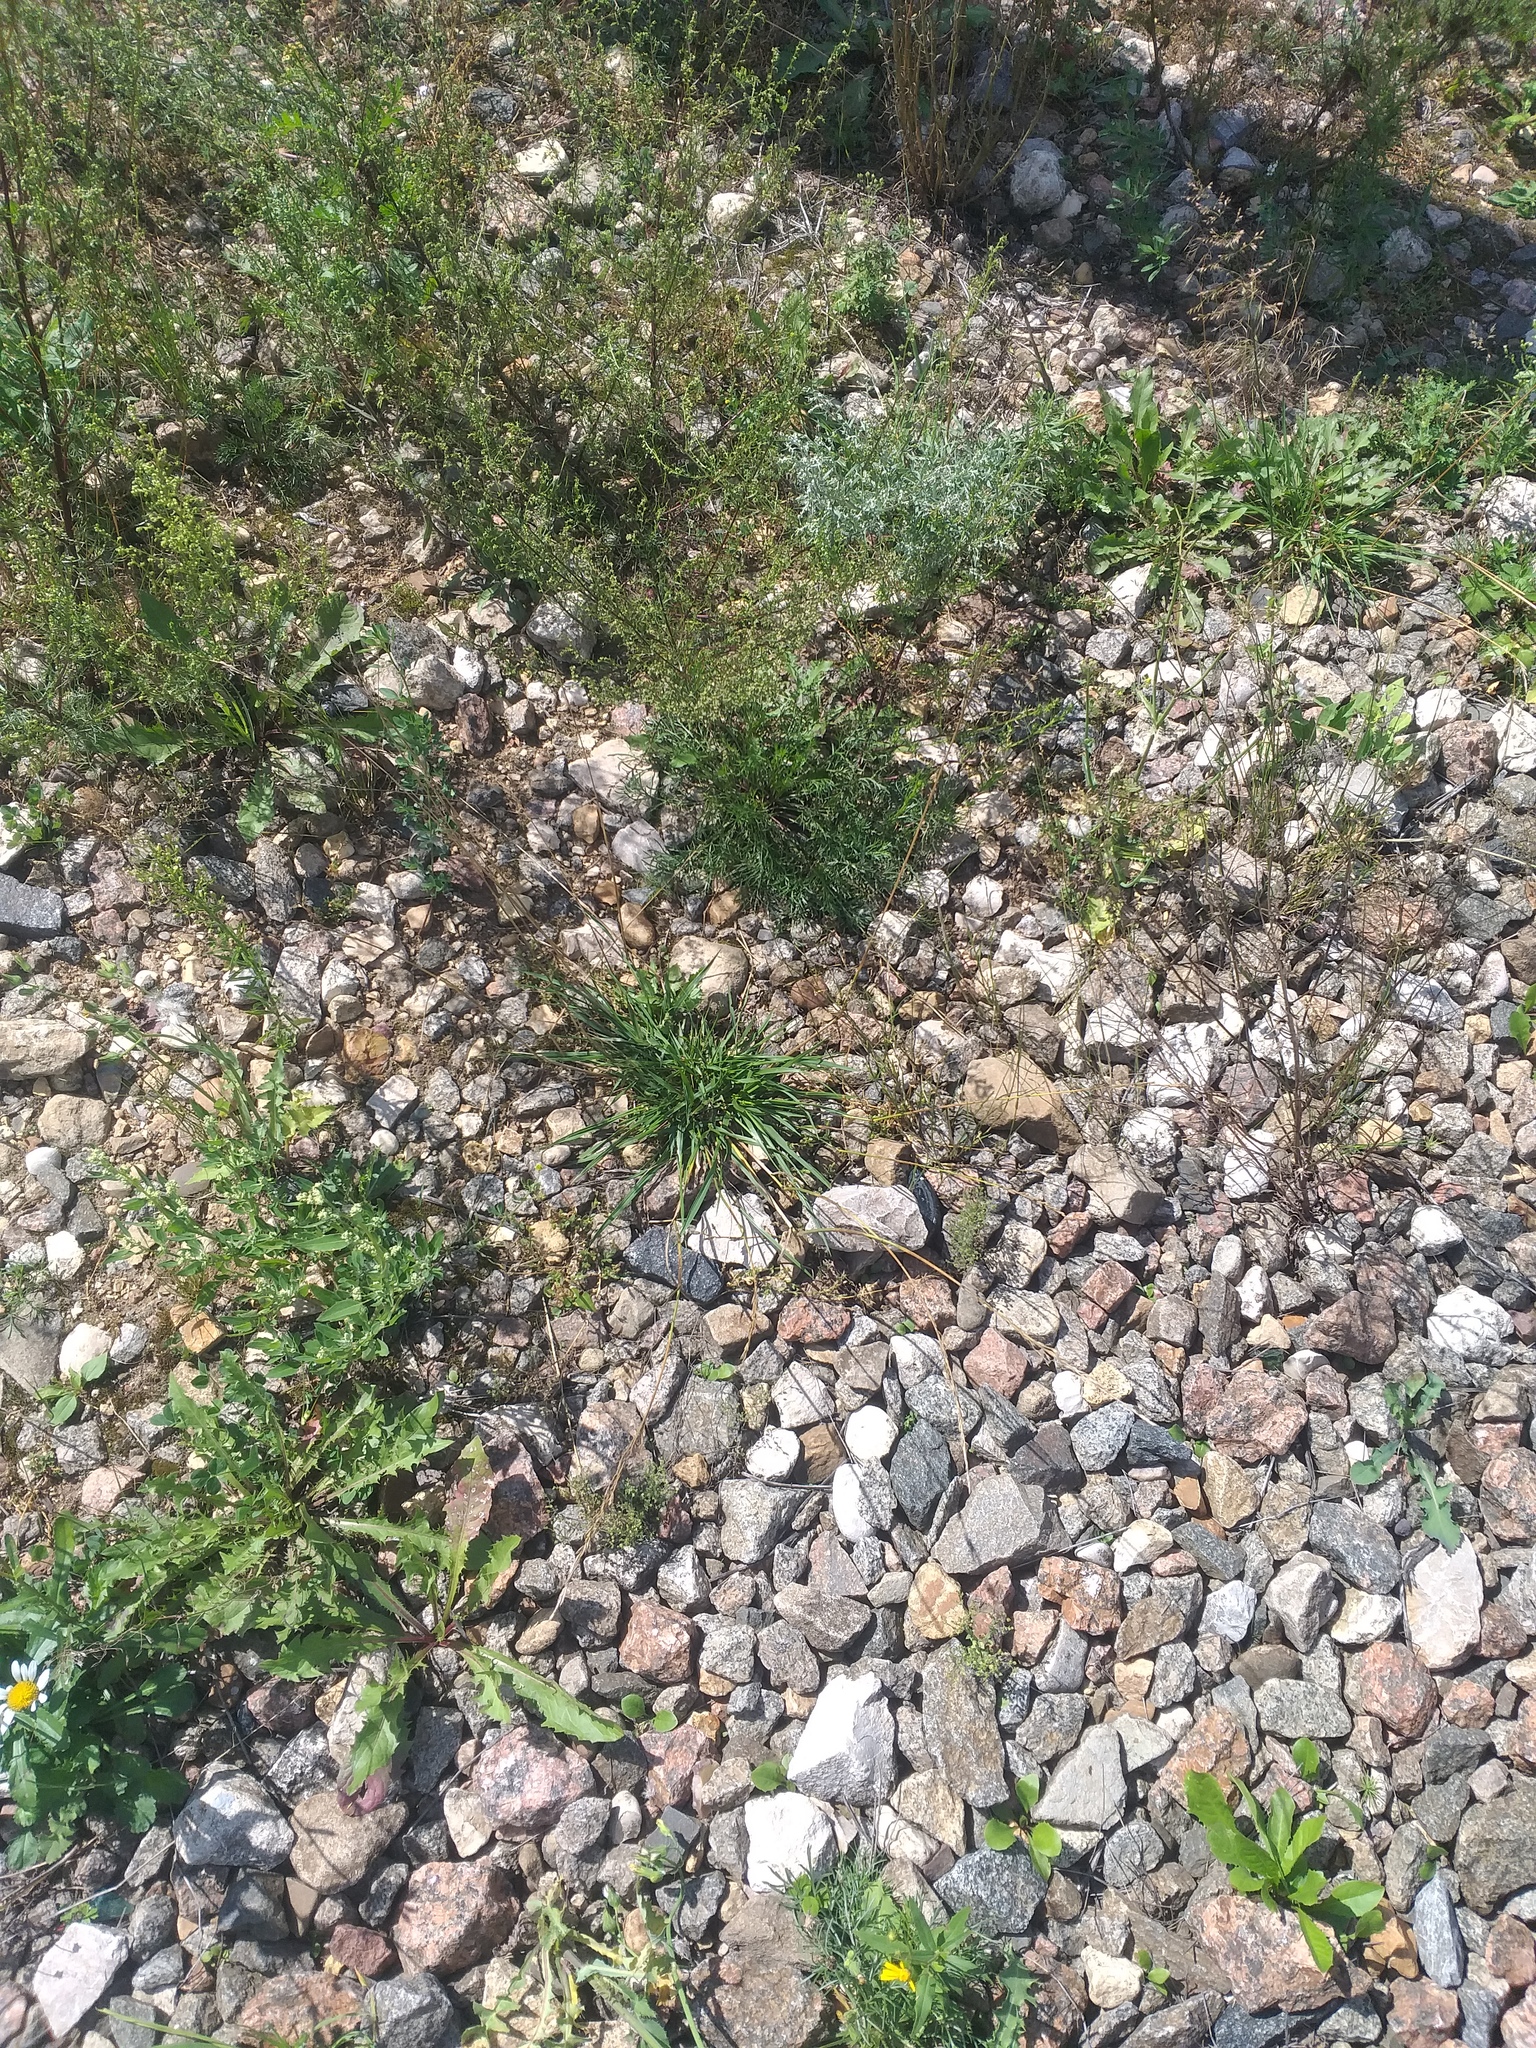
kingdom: Plantae
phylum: Tracheophyta
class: Liliopsida
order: Poales
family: Poaceae
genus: Lolium
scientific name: Lolium pratense
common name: Dover grass
